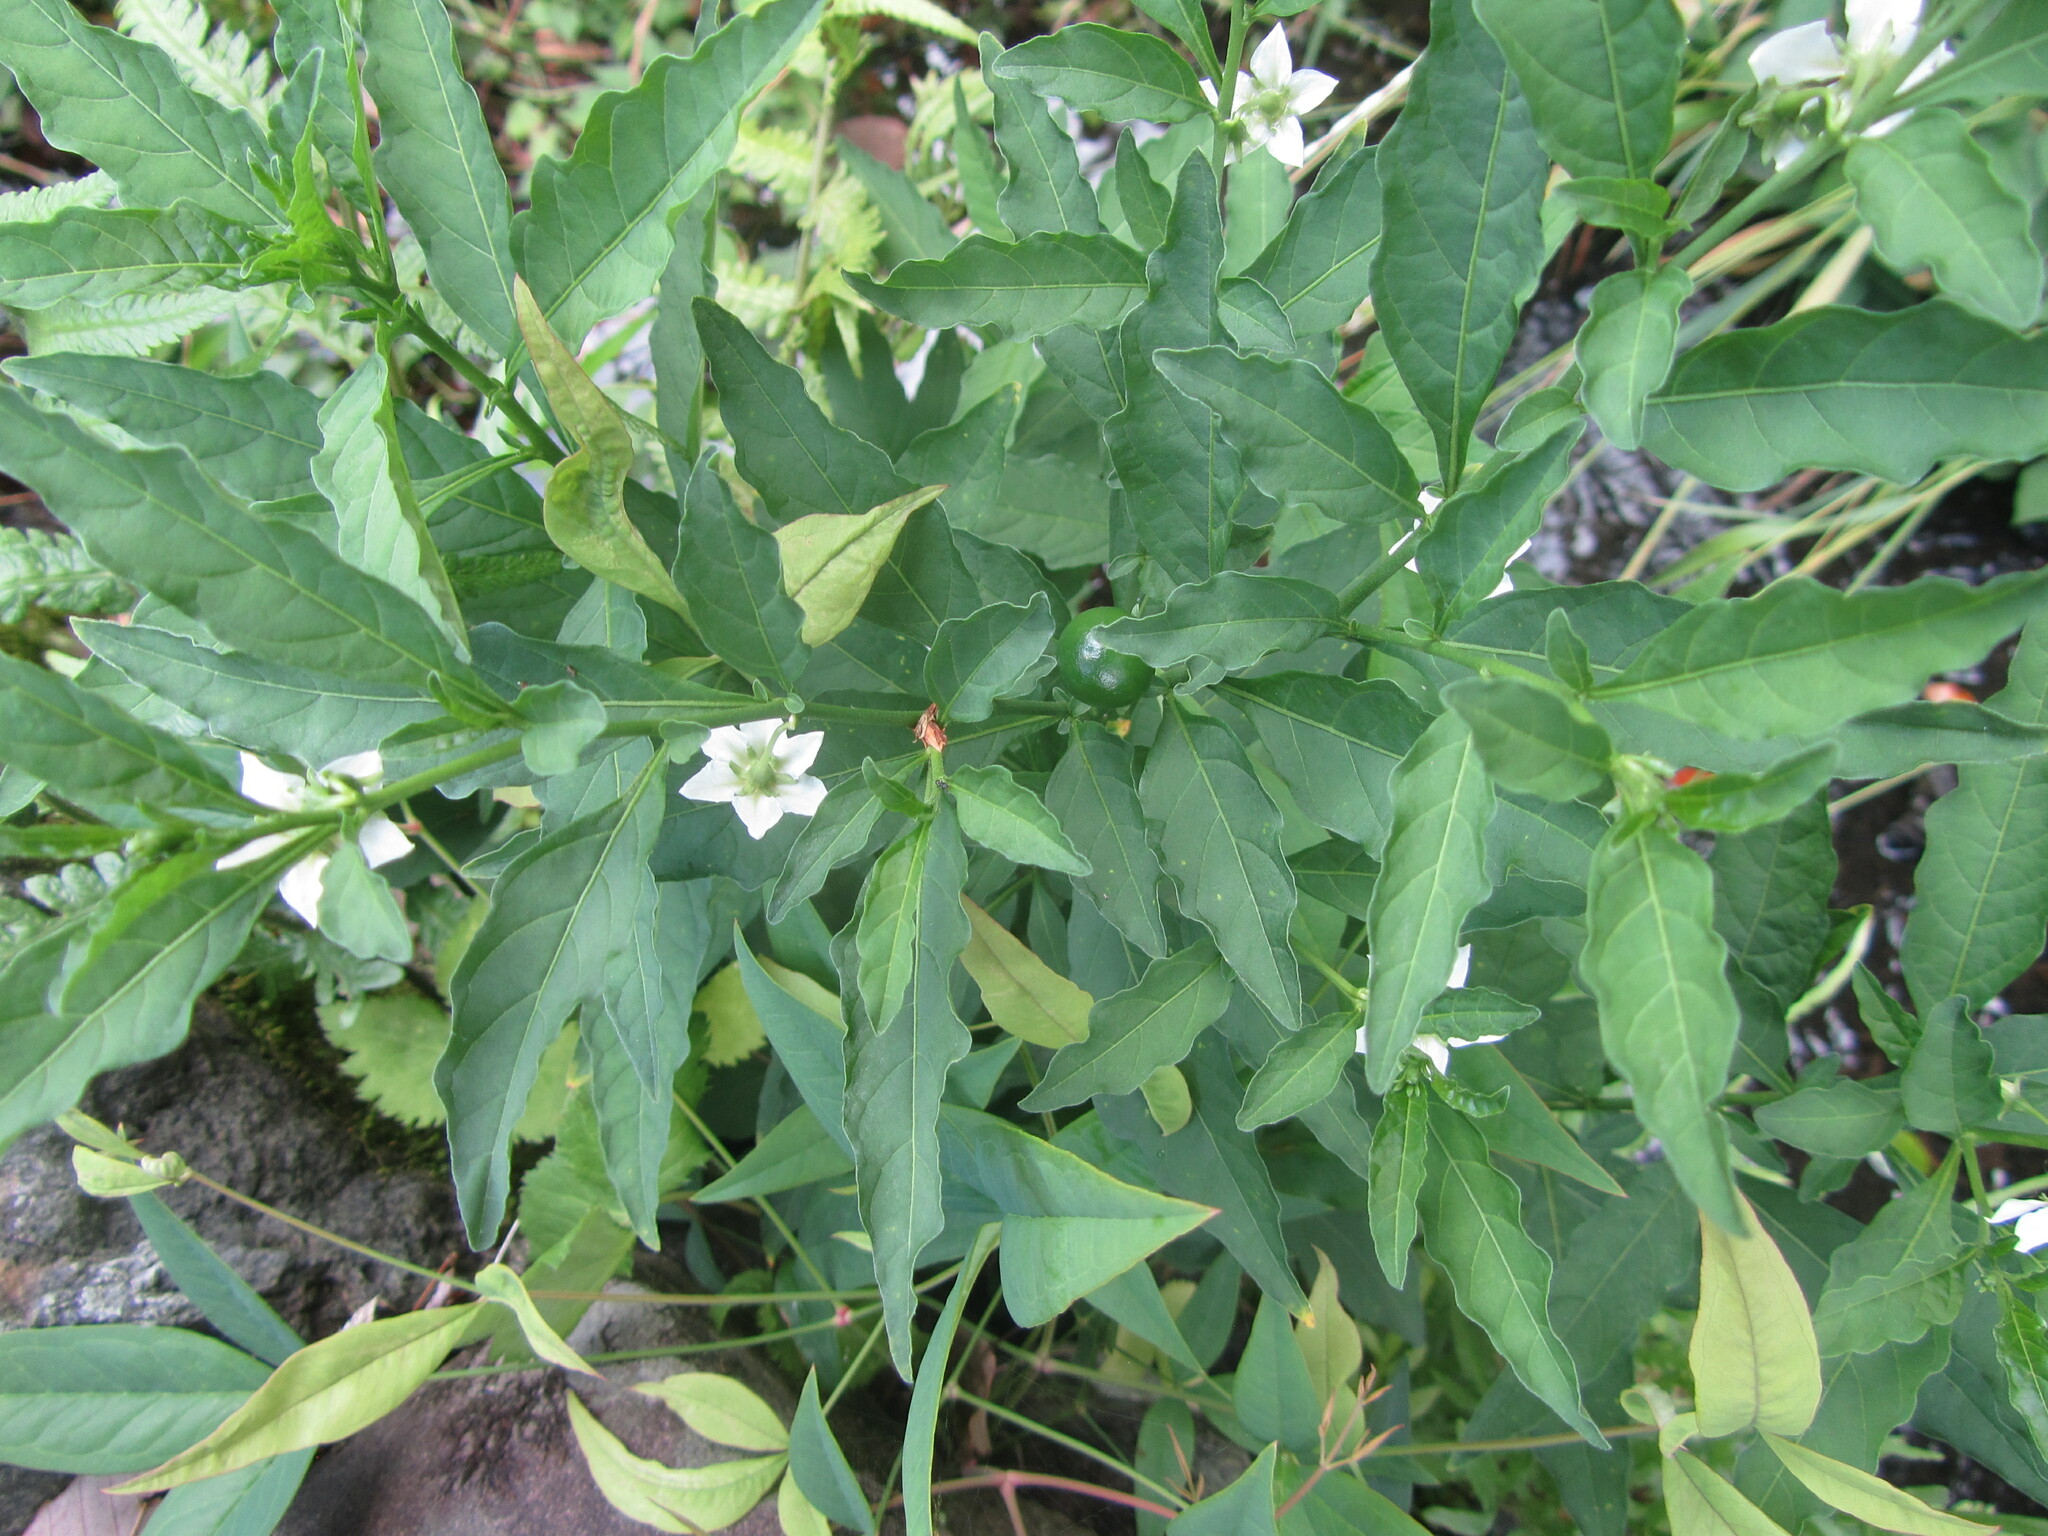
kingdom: Plantae
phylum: Tracheophyta
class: Magnoliopsida
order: Solanales
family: Solanaceae
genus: Solanum
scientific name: Solanum pseudocapsicum
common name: Jerusalem cherry
